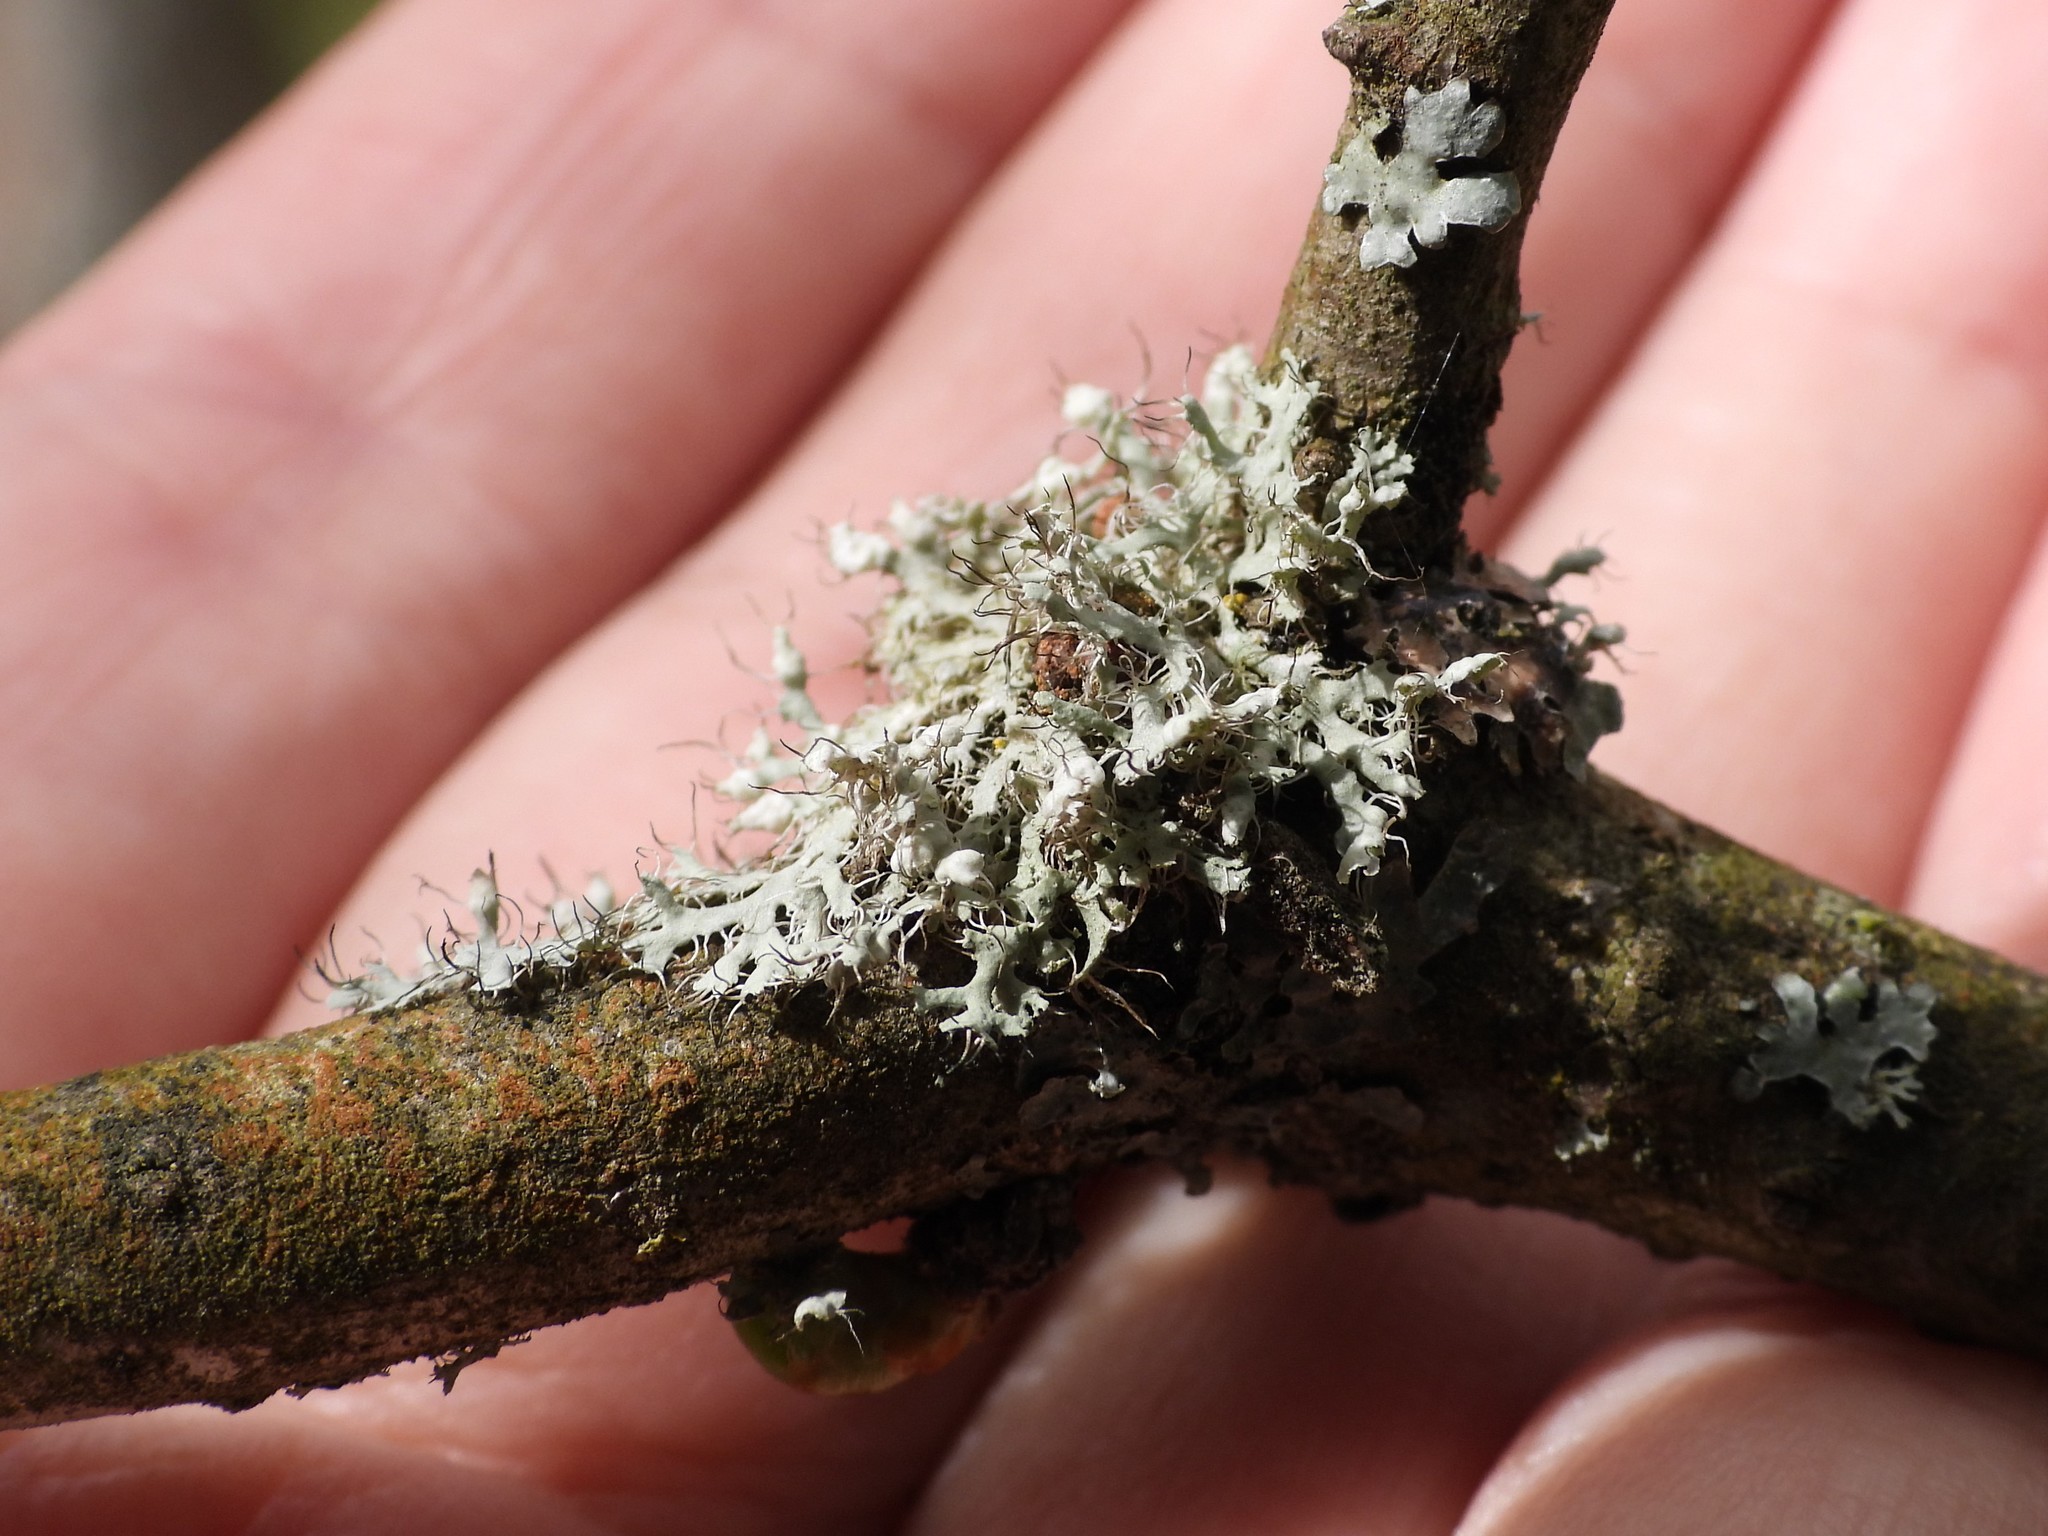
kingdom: Fungi
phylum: Ascomycota
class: Lecanoromycetes
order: Caliciales
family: Physciaceae
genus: Physcia
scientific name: Physcia adscendens
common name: Hooded rosette lichen
